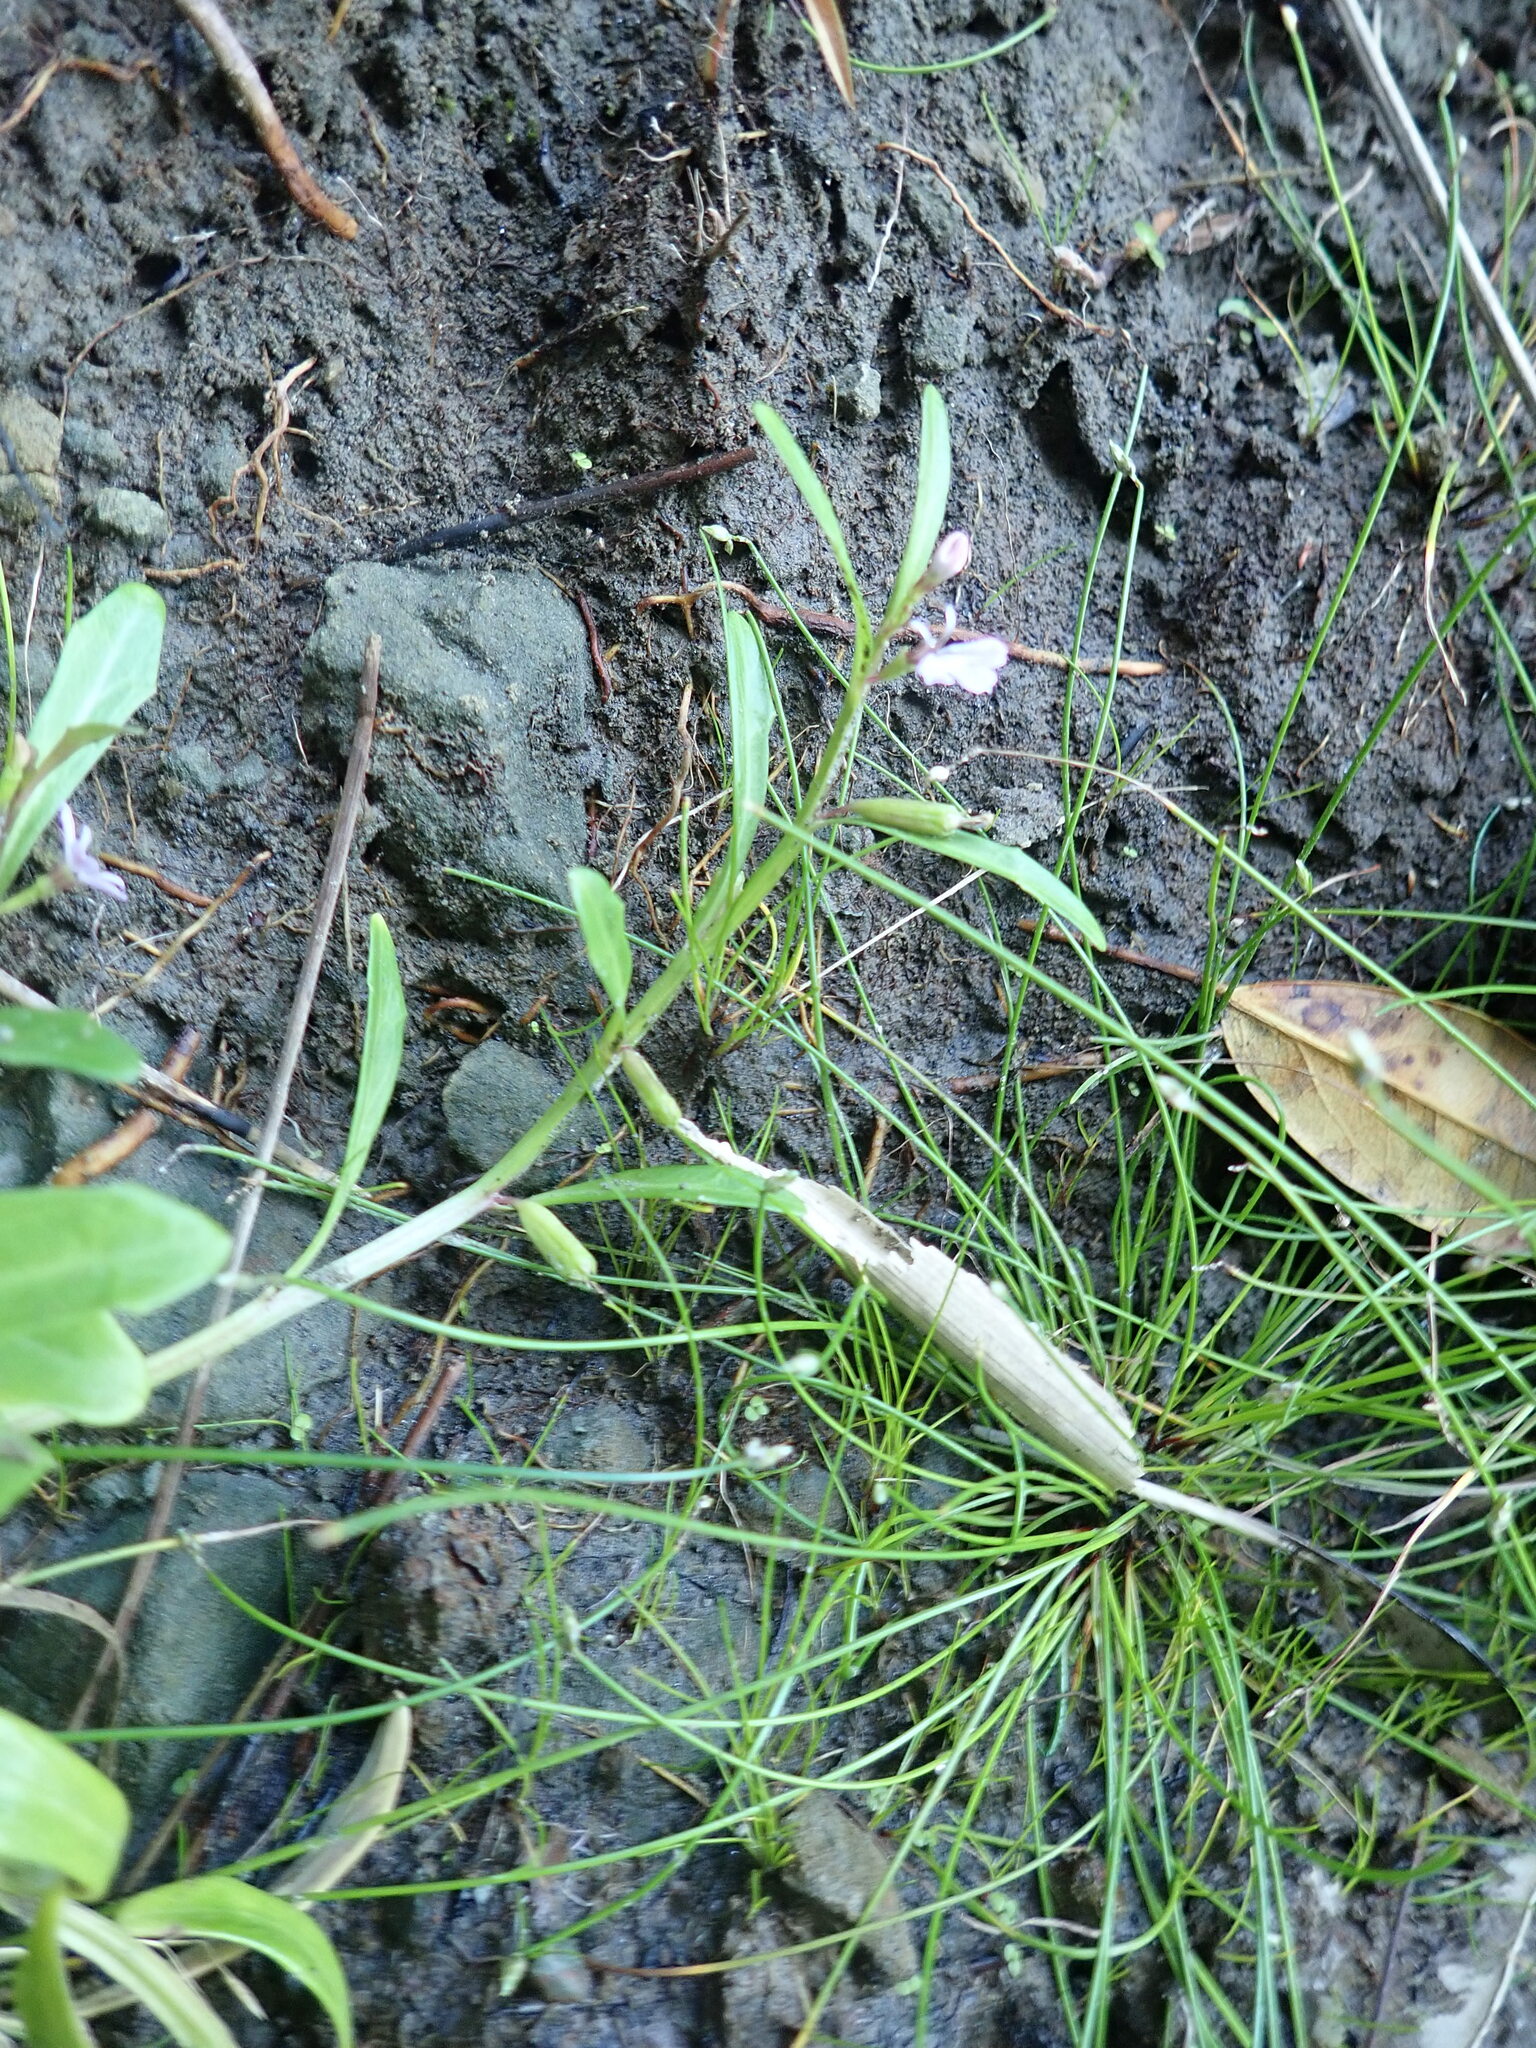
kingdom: Plantae
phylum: Tracheophyta
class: Magnoliopsida
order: Asterales
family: Campanulaceae
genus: Lobelia
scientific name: Lobelia anceps
